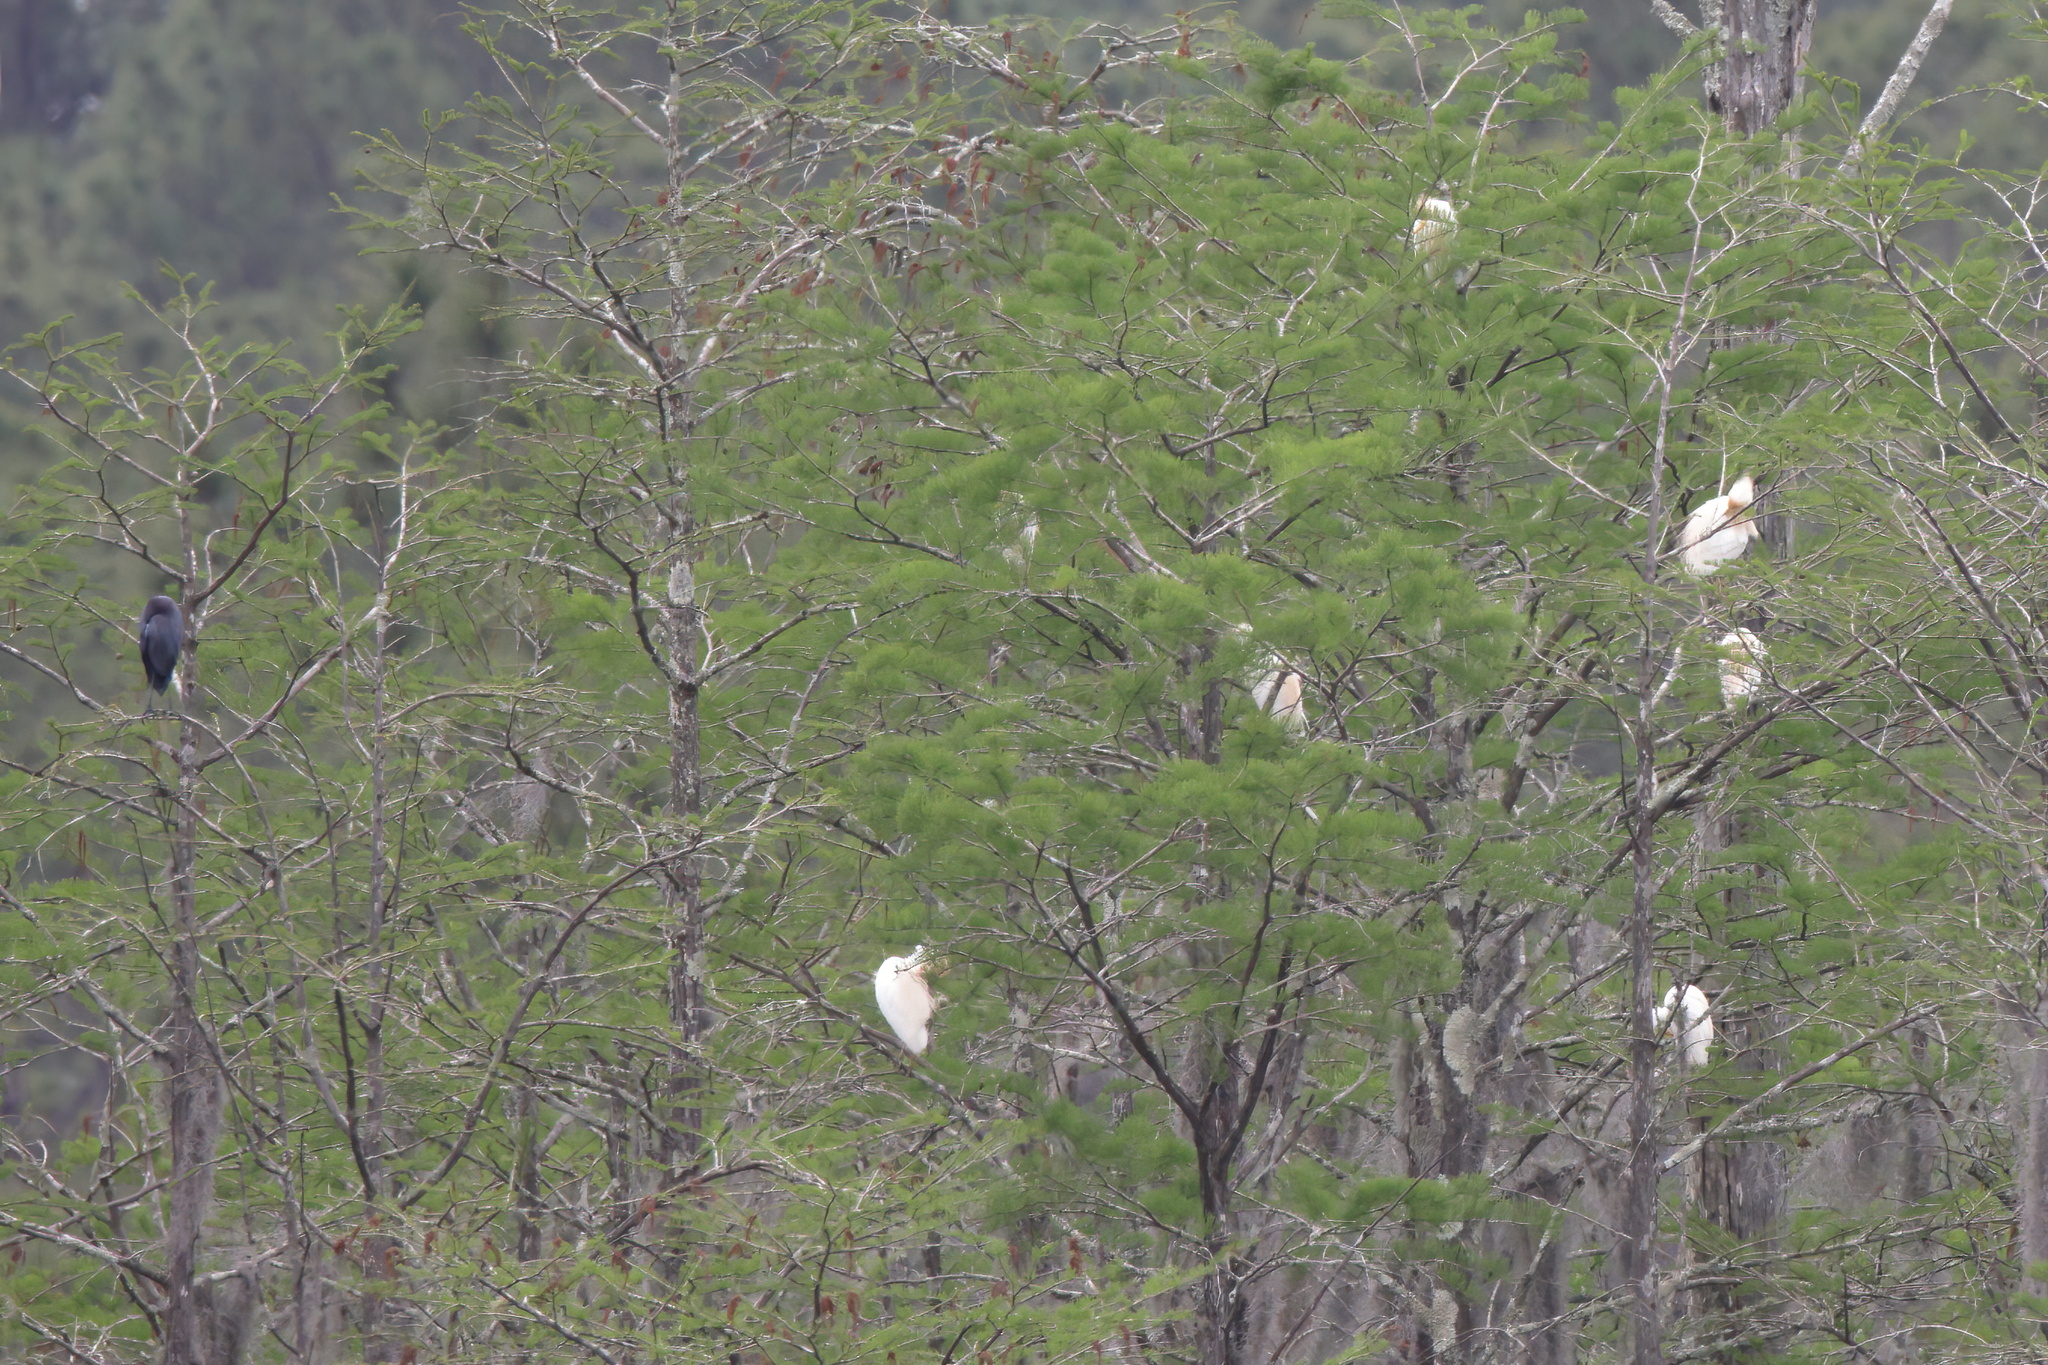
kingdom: Animalia
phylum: Chordata
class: Aves
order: Pelecaniformes
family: Ardeidae
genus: Egretta
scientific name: Egretta caerulea
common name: Little blue heron
